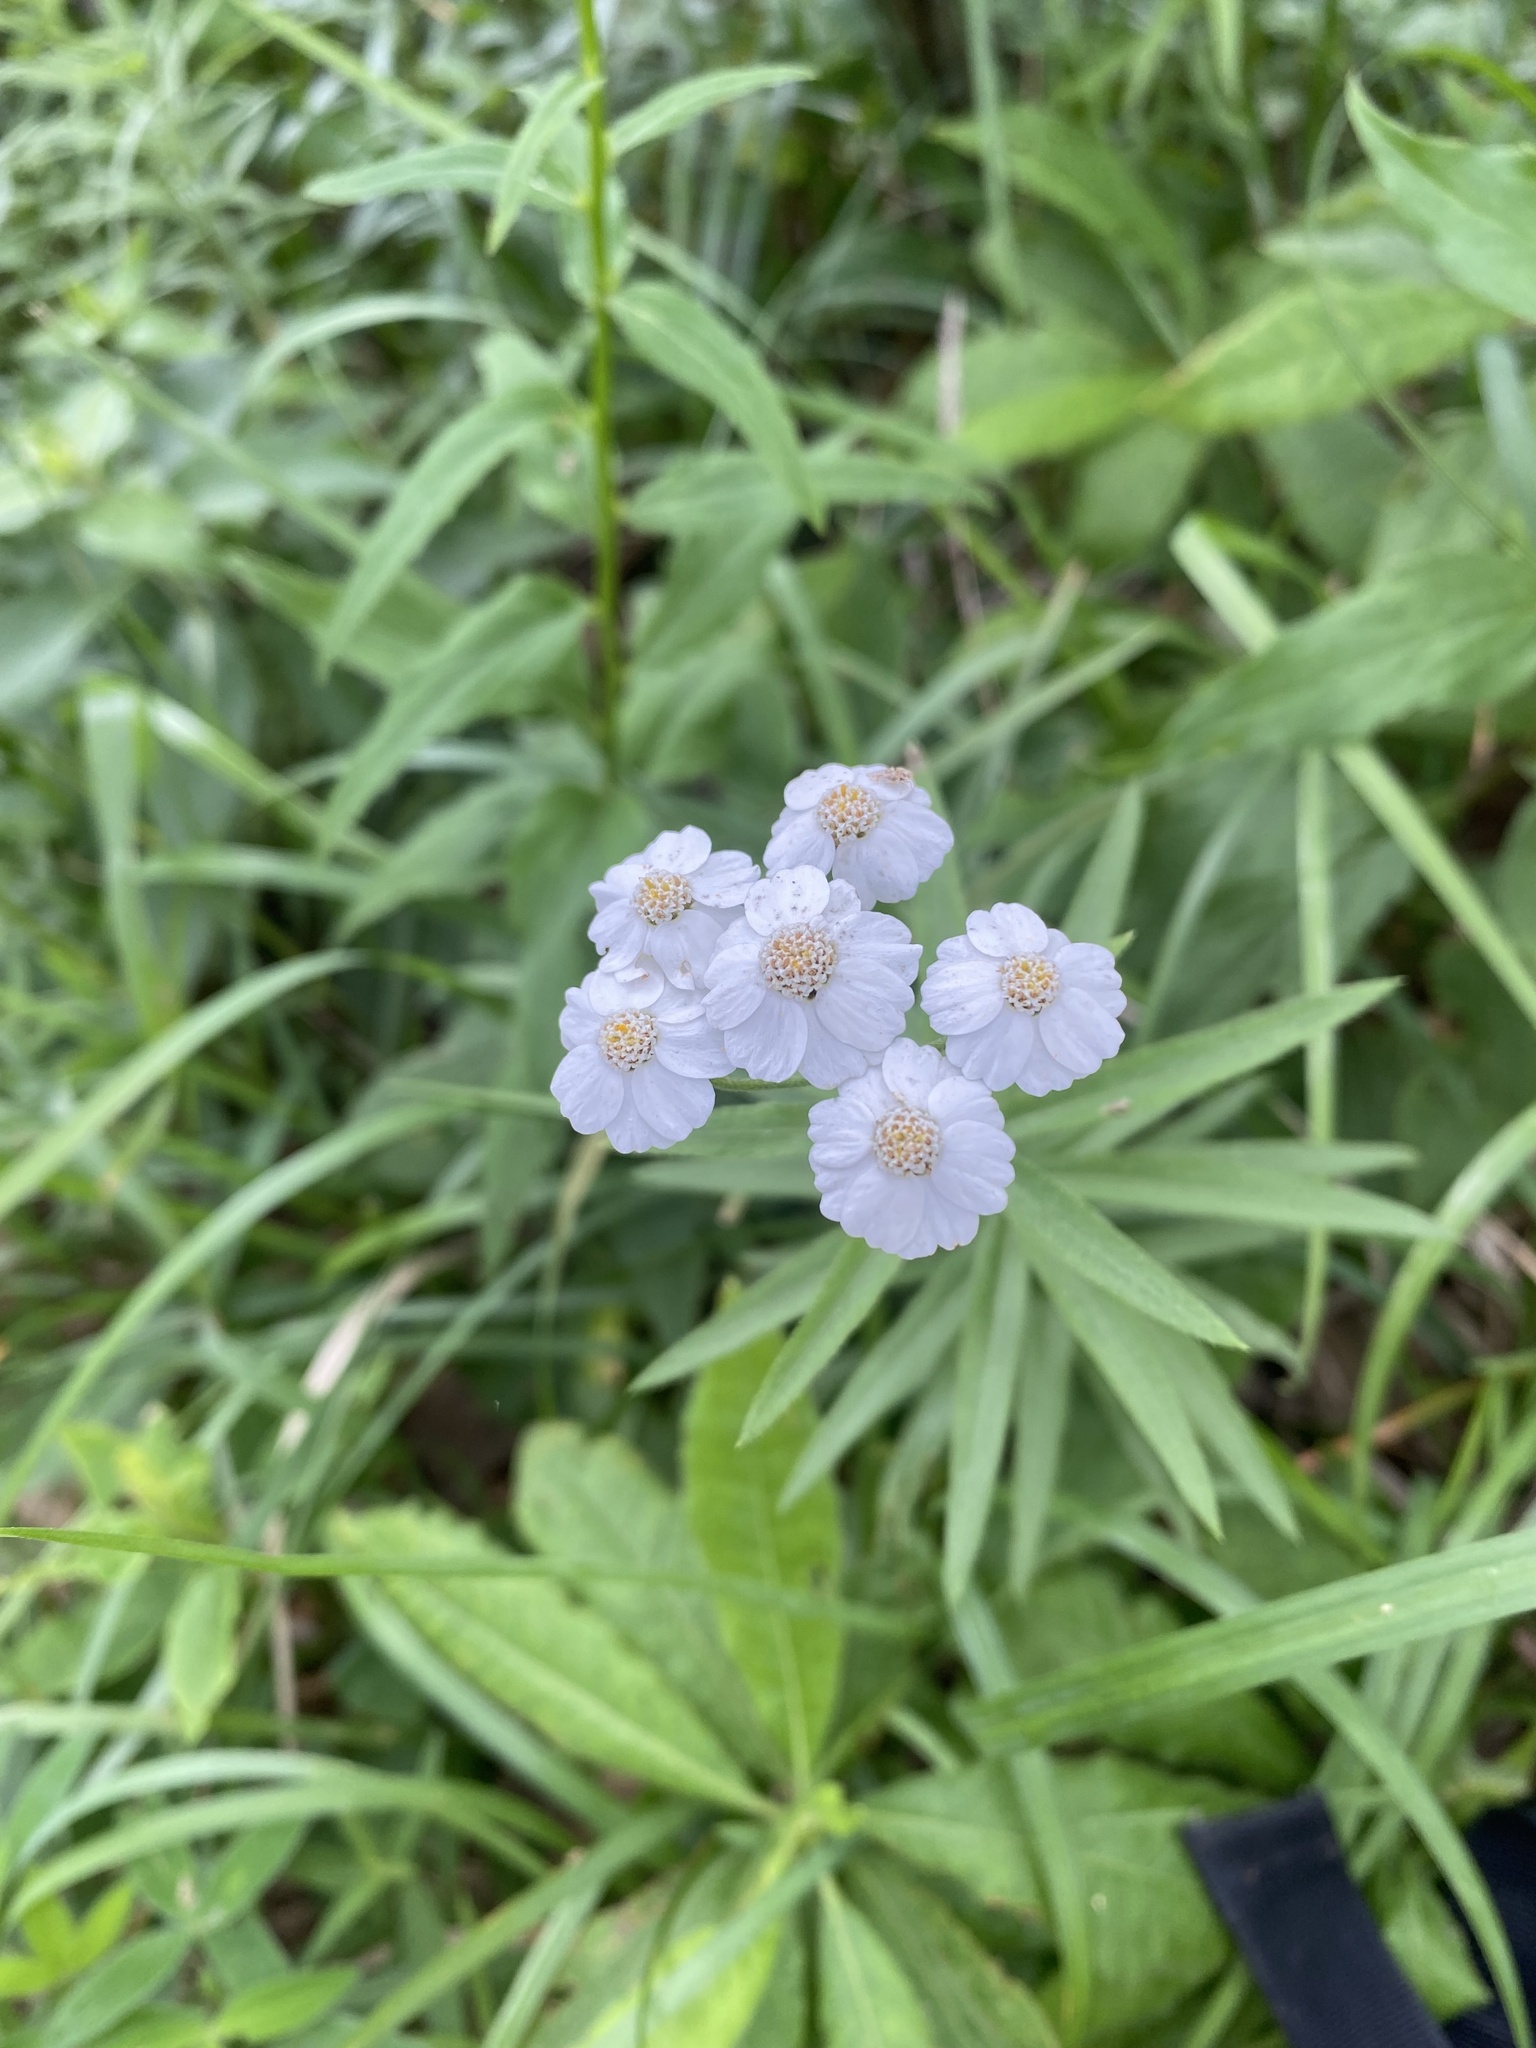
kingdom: Plantae
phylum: Tracheophyta
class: Magnoliopsida
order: Asterales
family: Asteraceae
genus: Achillea
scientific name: Achillea biserrata
